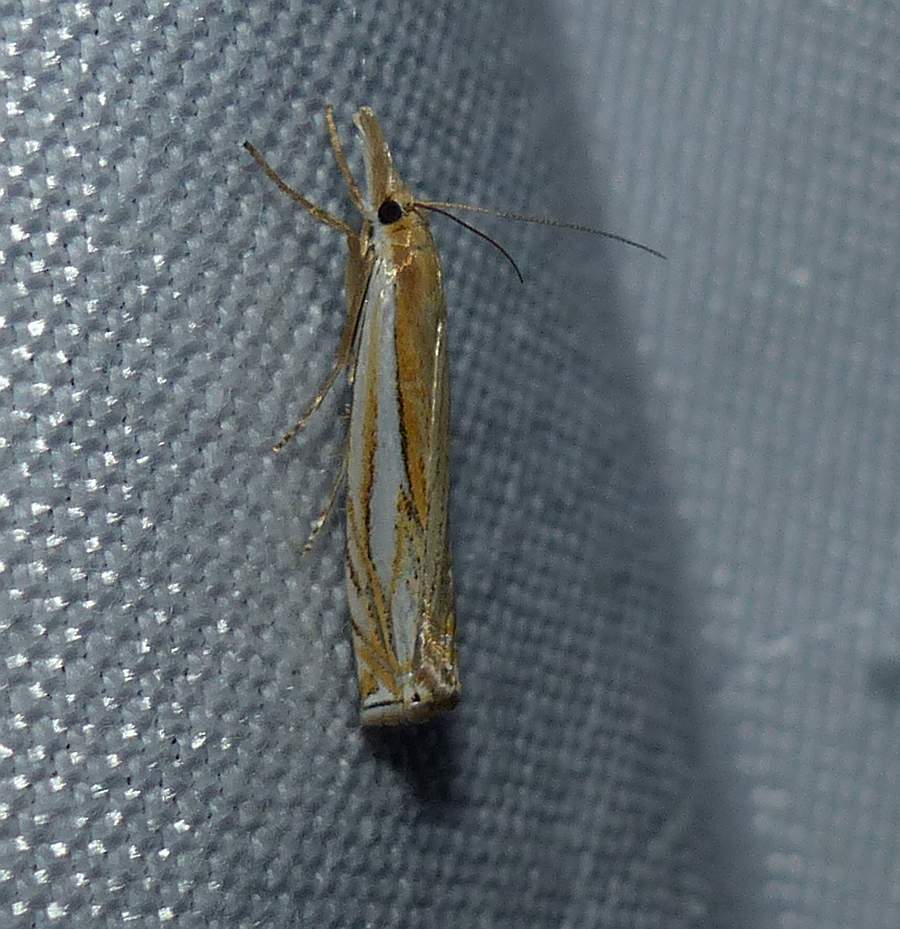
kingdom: Animalia
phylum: Arthropoda
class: Insecta
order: Lepidoptera
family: Crambidae
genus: Crambus
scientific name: Crambus saltuellus
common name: Pasture grass-veneer
